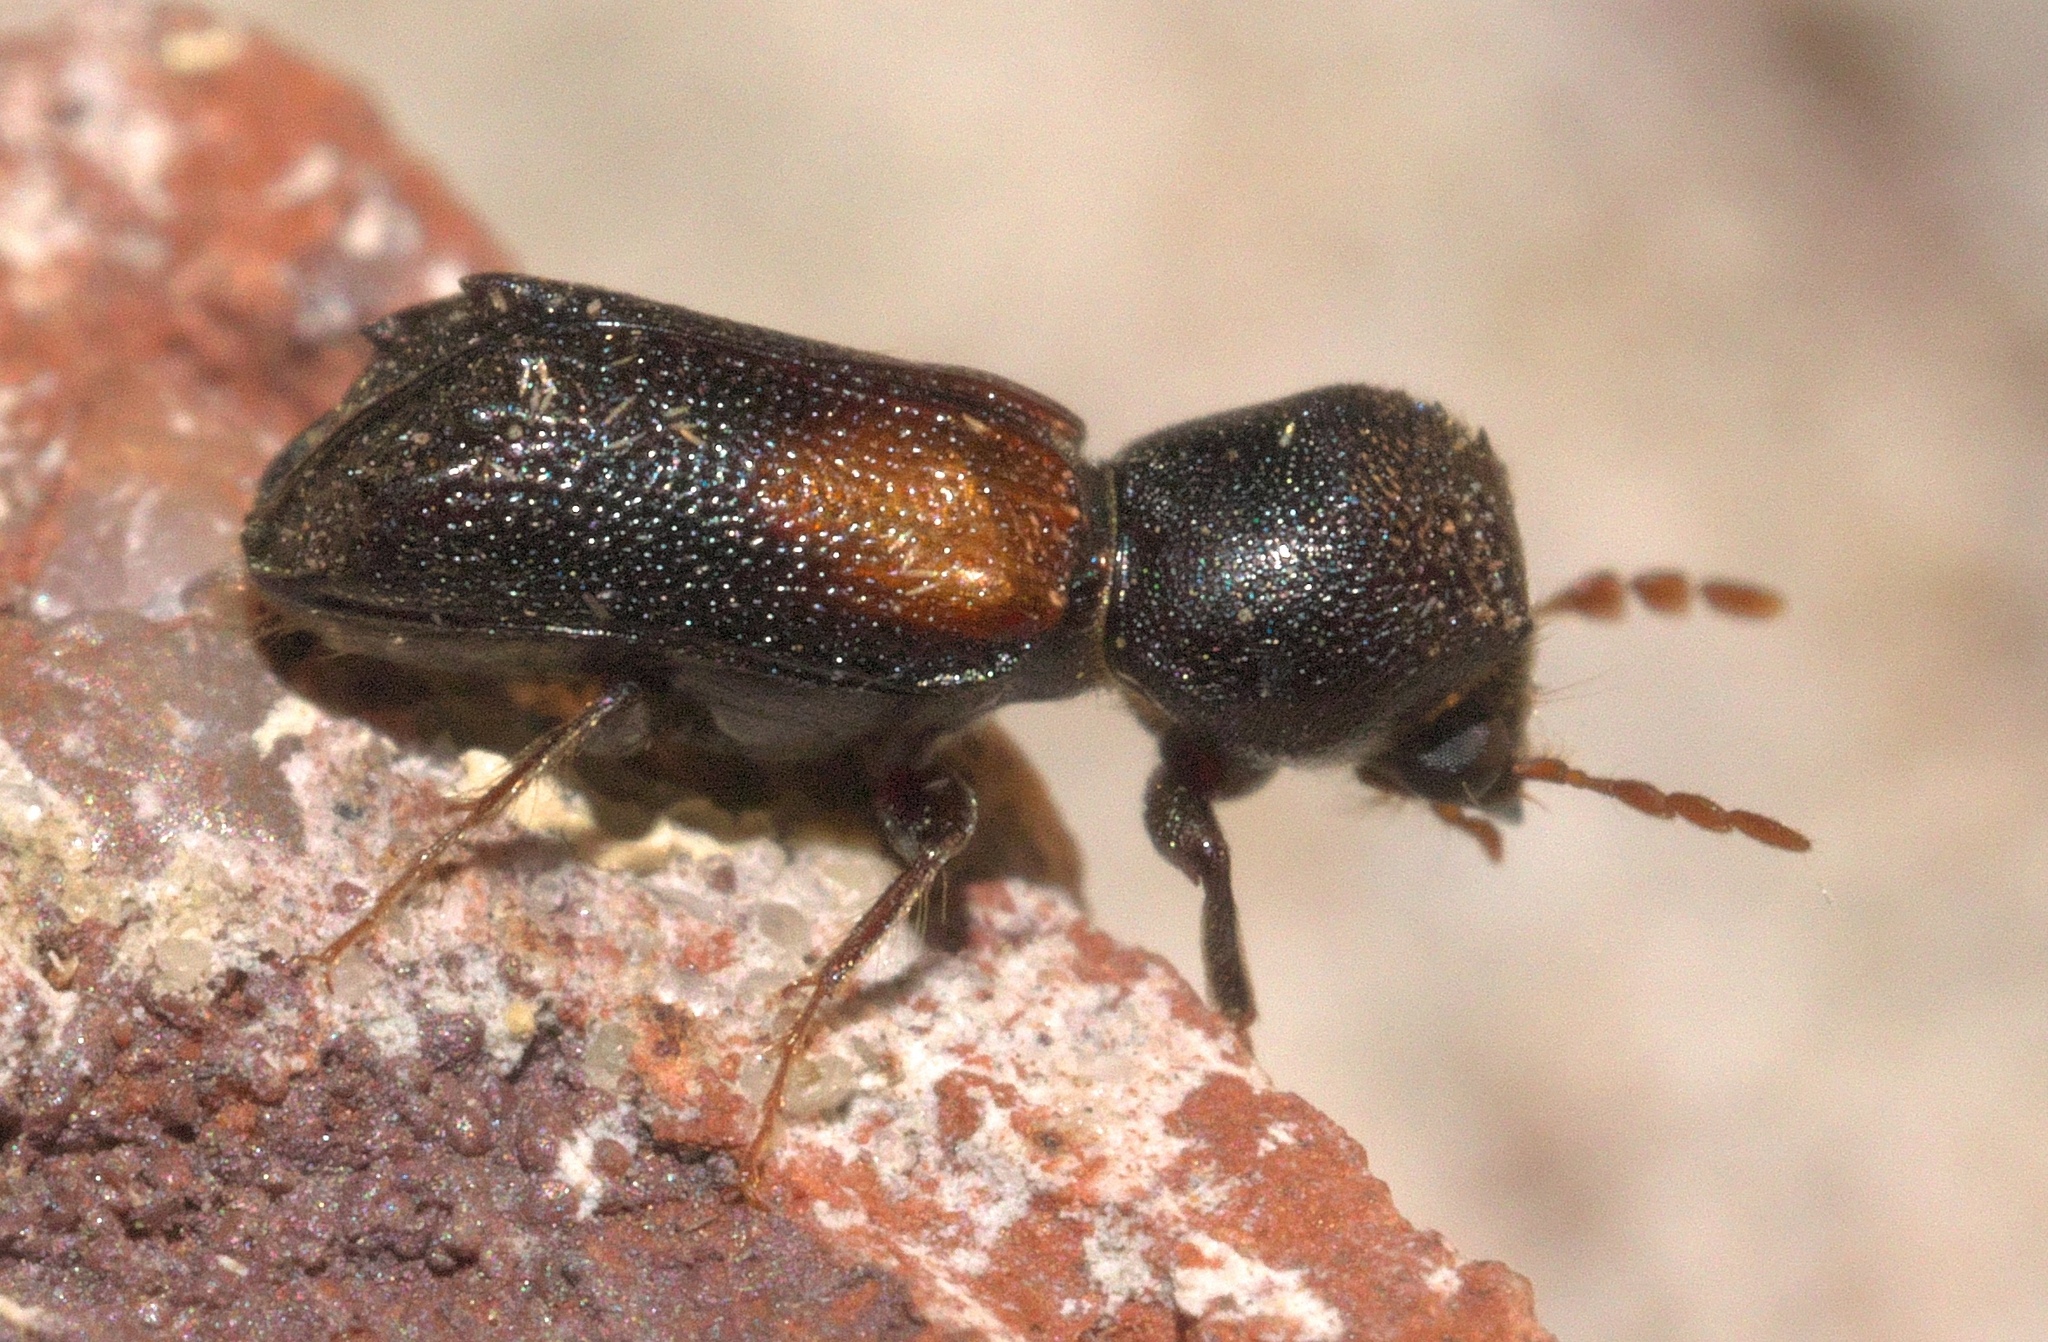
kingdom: Animalia
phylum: Arthropoda
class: Insecta
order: Coleoptera
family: Bostrichidae
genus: Xylobiops
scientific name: Xylobiops basilaris
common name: Red-shouldered bostrichid
